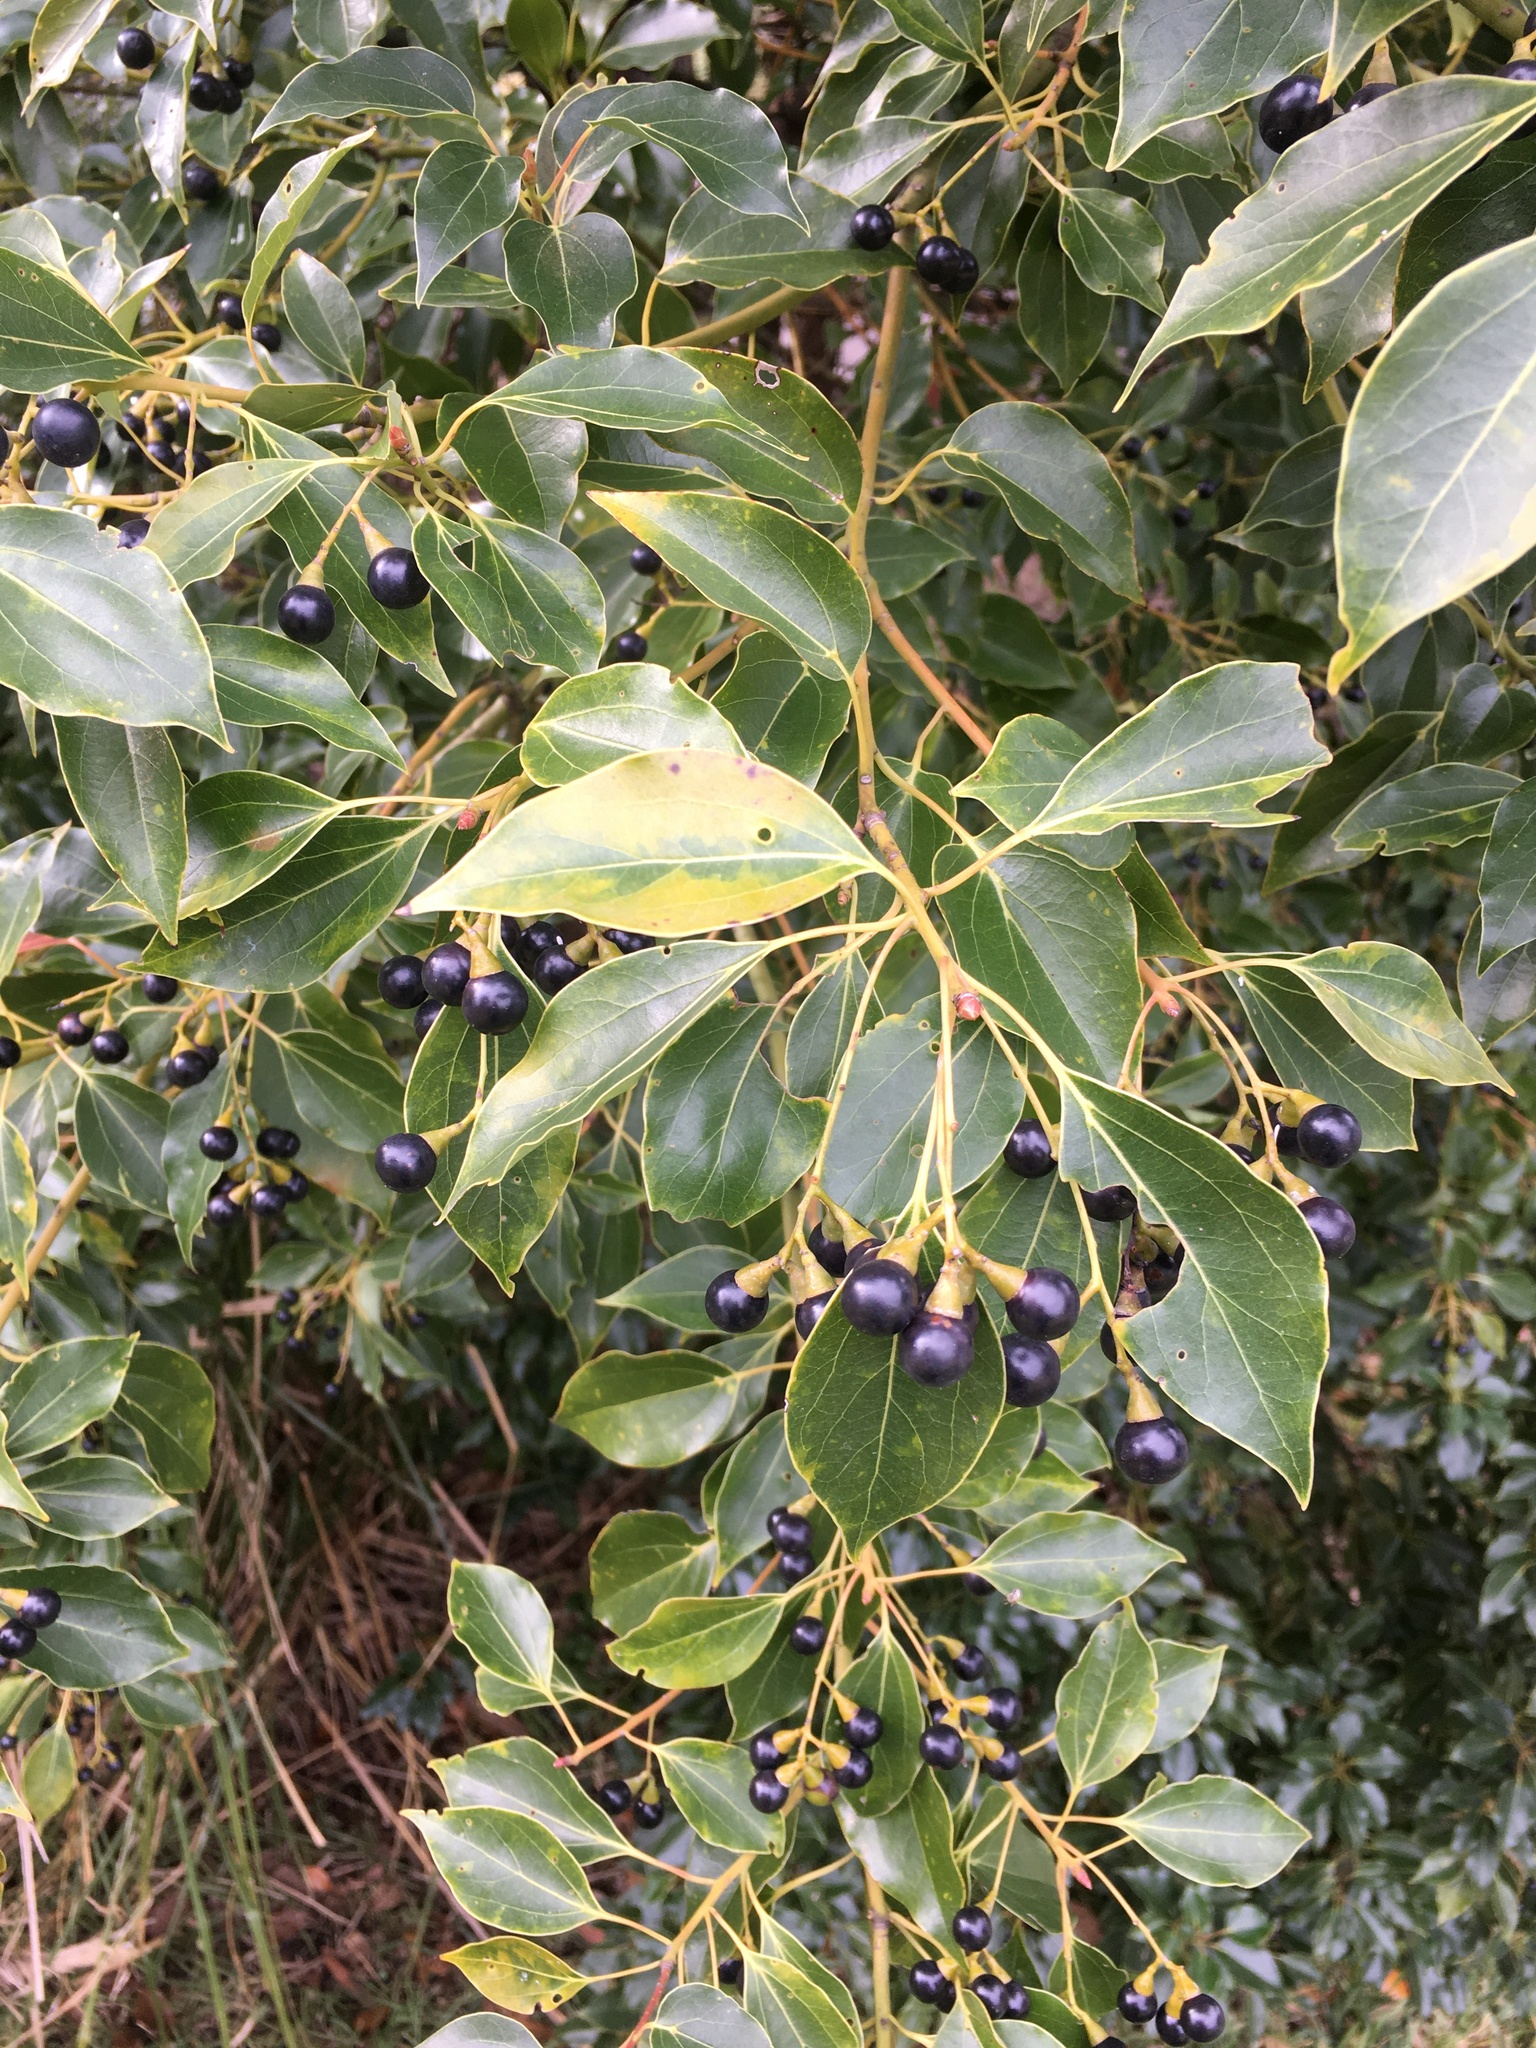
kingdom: Plantae
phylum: Tracheophyta
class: Magnoliopsida
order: Laurales
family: Lauraceae
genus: Cinnamomum
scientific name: Cinnamomum camphora
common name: Camphortree
